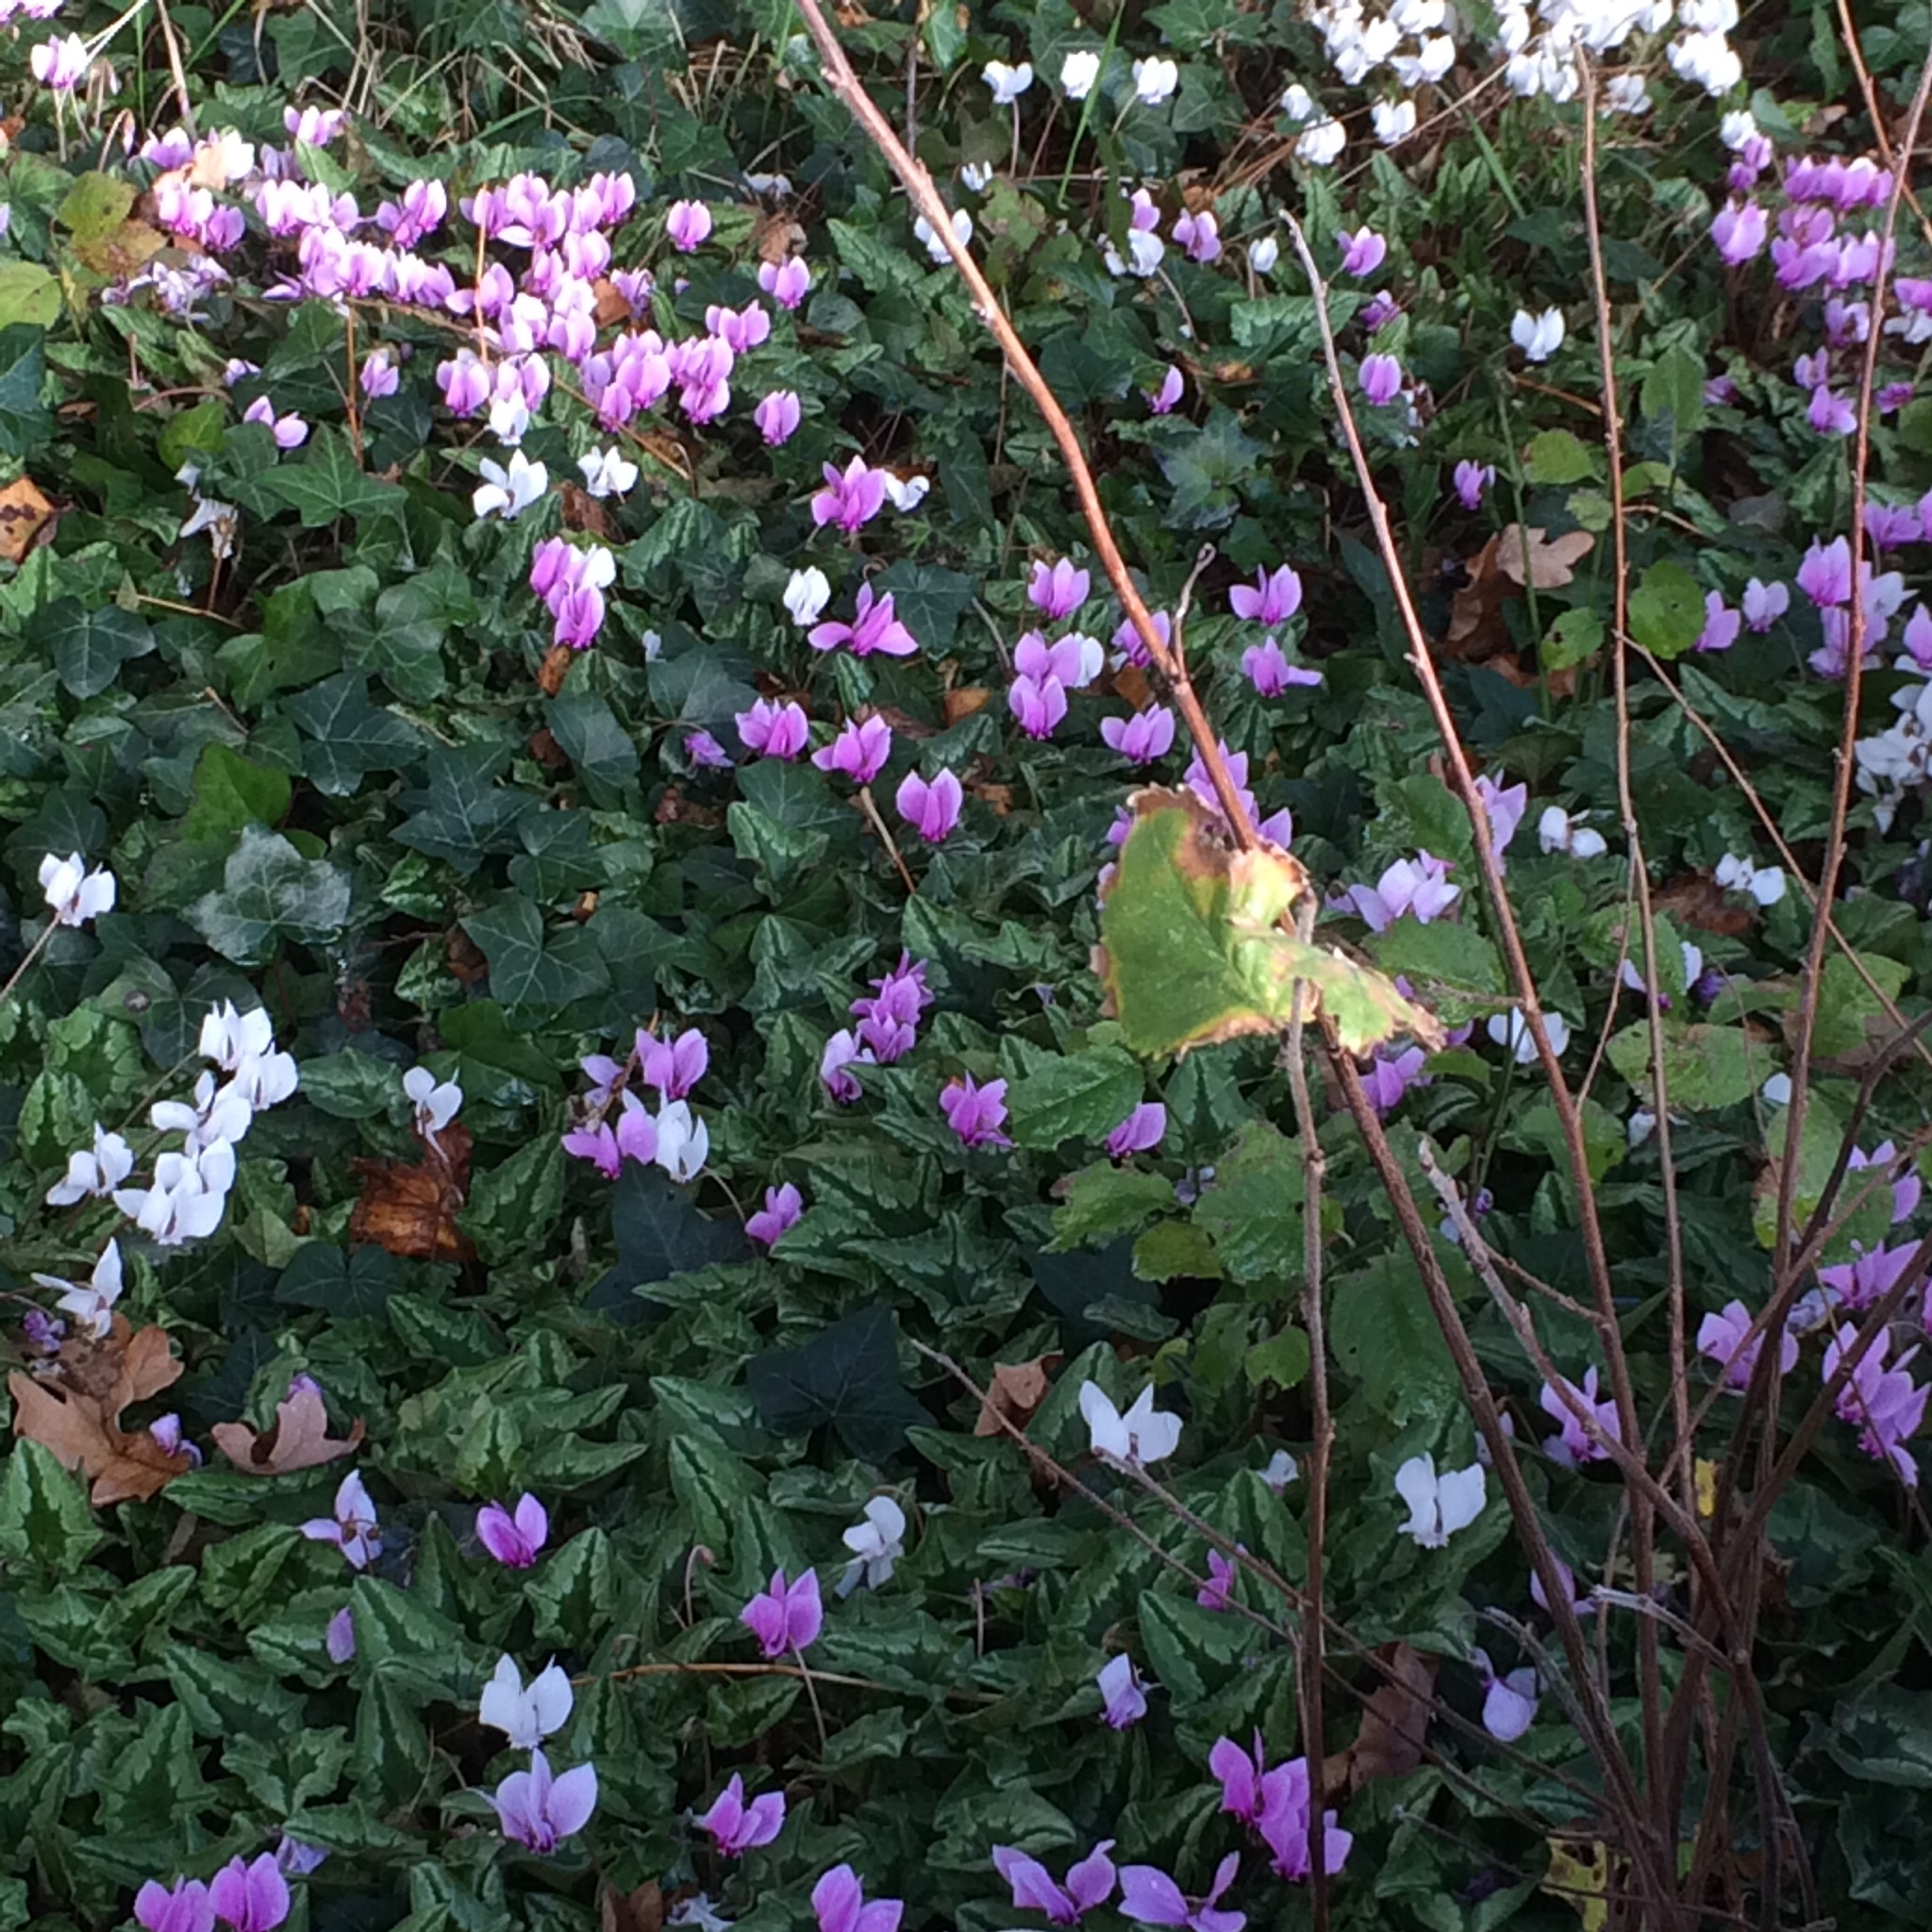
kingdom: Plantae
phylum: Tracheophyta
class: Magnoliopsida
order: Ericales
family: Primulaceae
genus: Cyclamen
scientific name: Cyclamen hederifolium
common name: Sowbread
